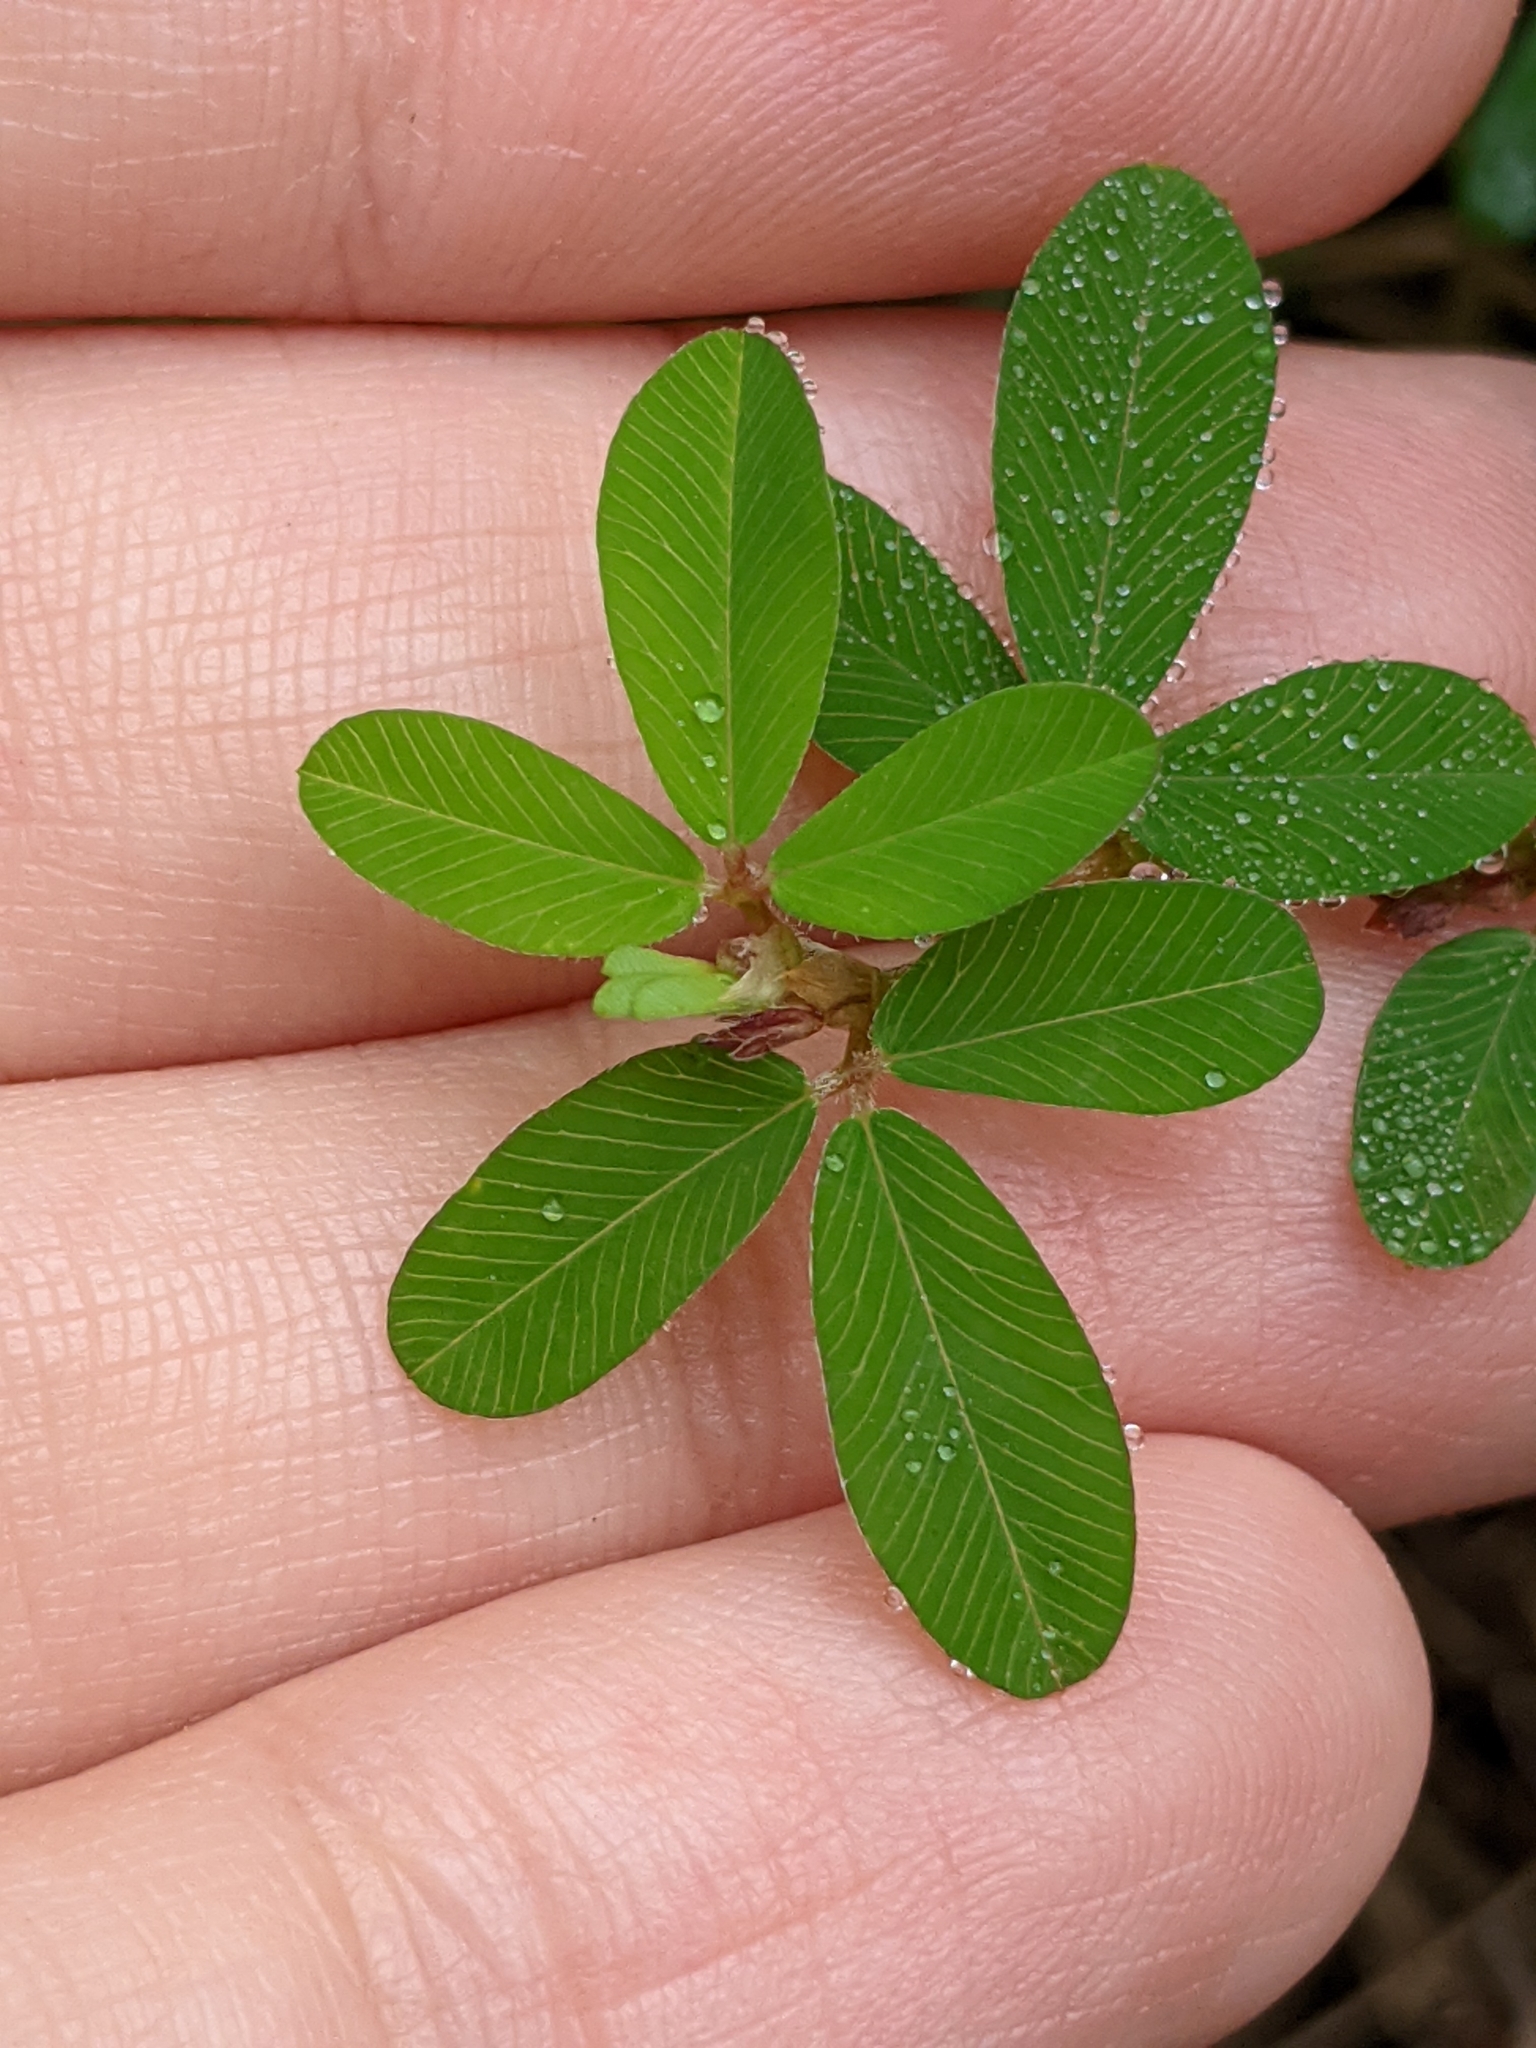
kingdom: Plantae
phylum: Tracheophyta
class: Magnoliopsida
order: Fabales
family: Fabaceae
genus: Kummerowia
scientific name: Kummerowia striata
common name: Japanese clover
